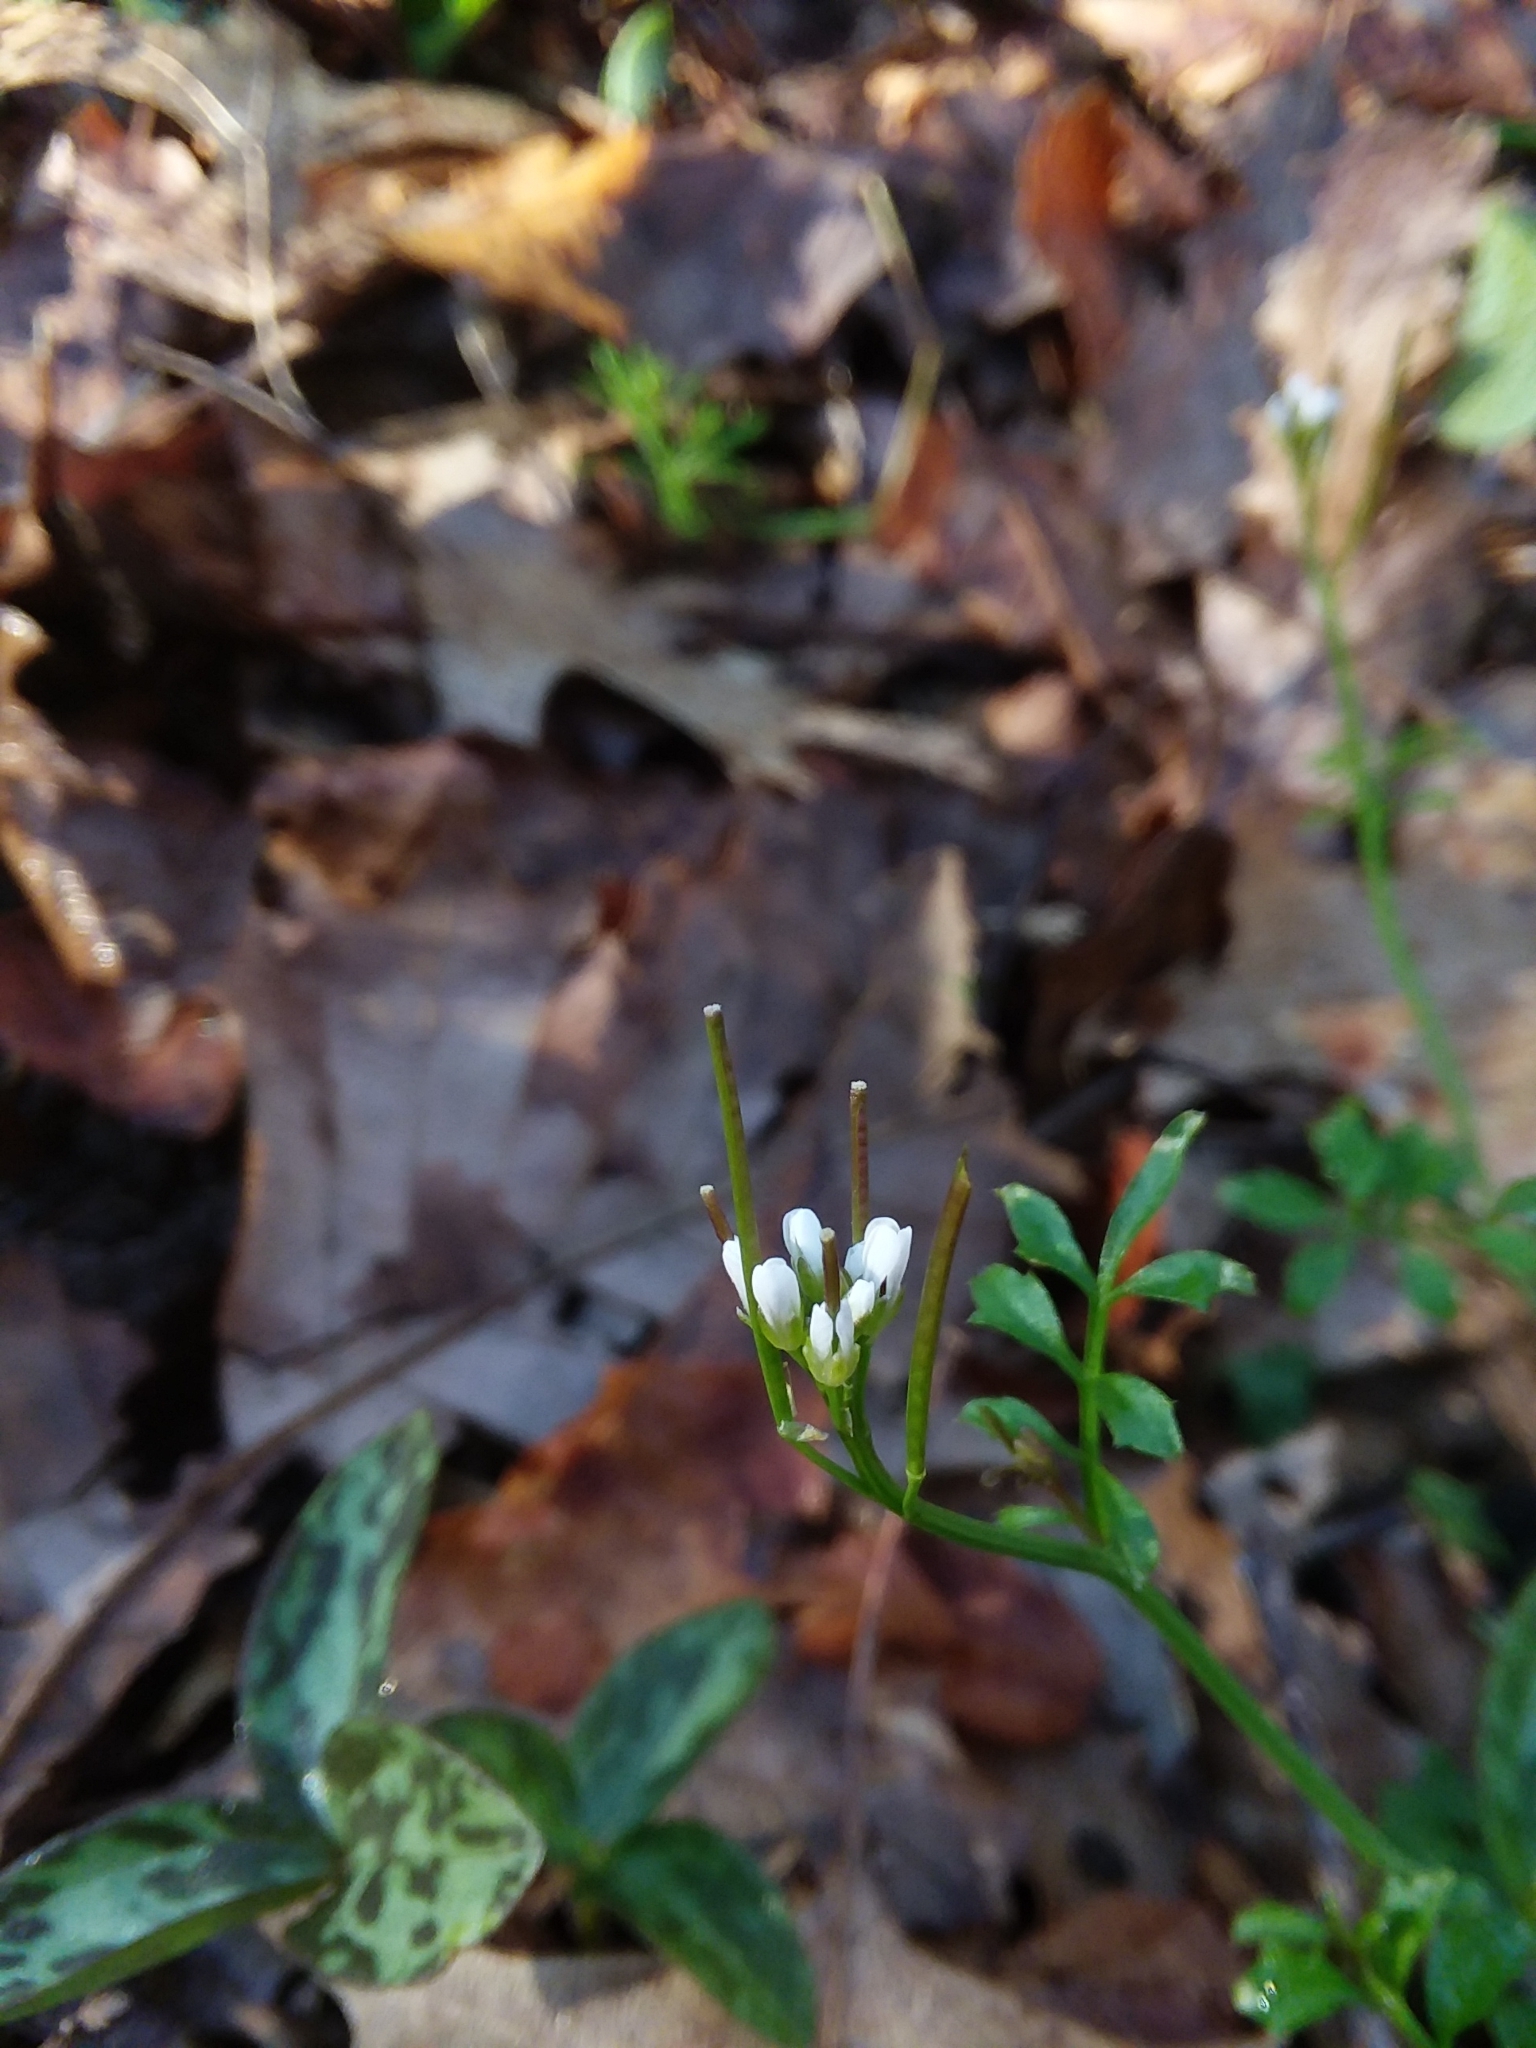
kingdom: Plantae
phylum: Tracheophyta
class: Magnoliopsida
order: Brassicales
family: Brassicaceae
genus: Cardamine
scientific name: Cardamine hirsuta
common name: Hairy bittercress
